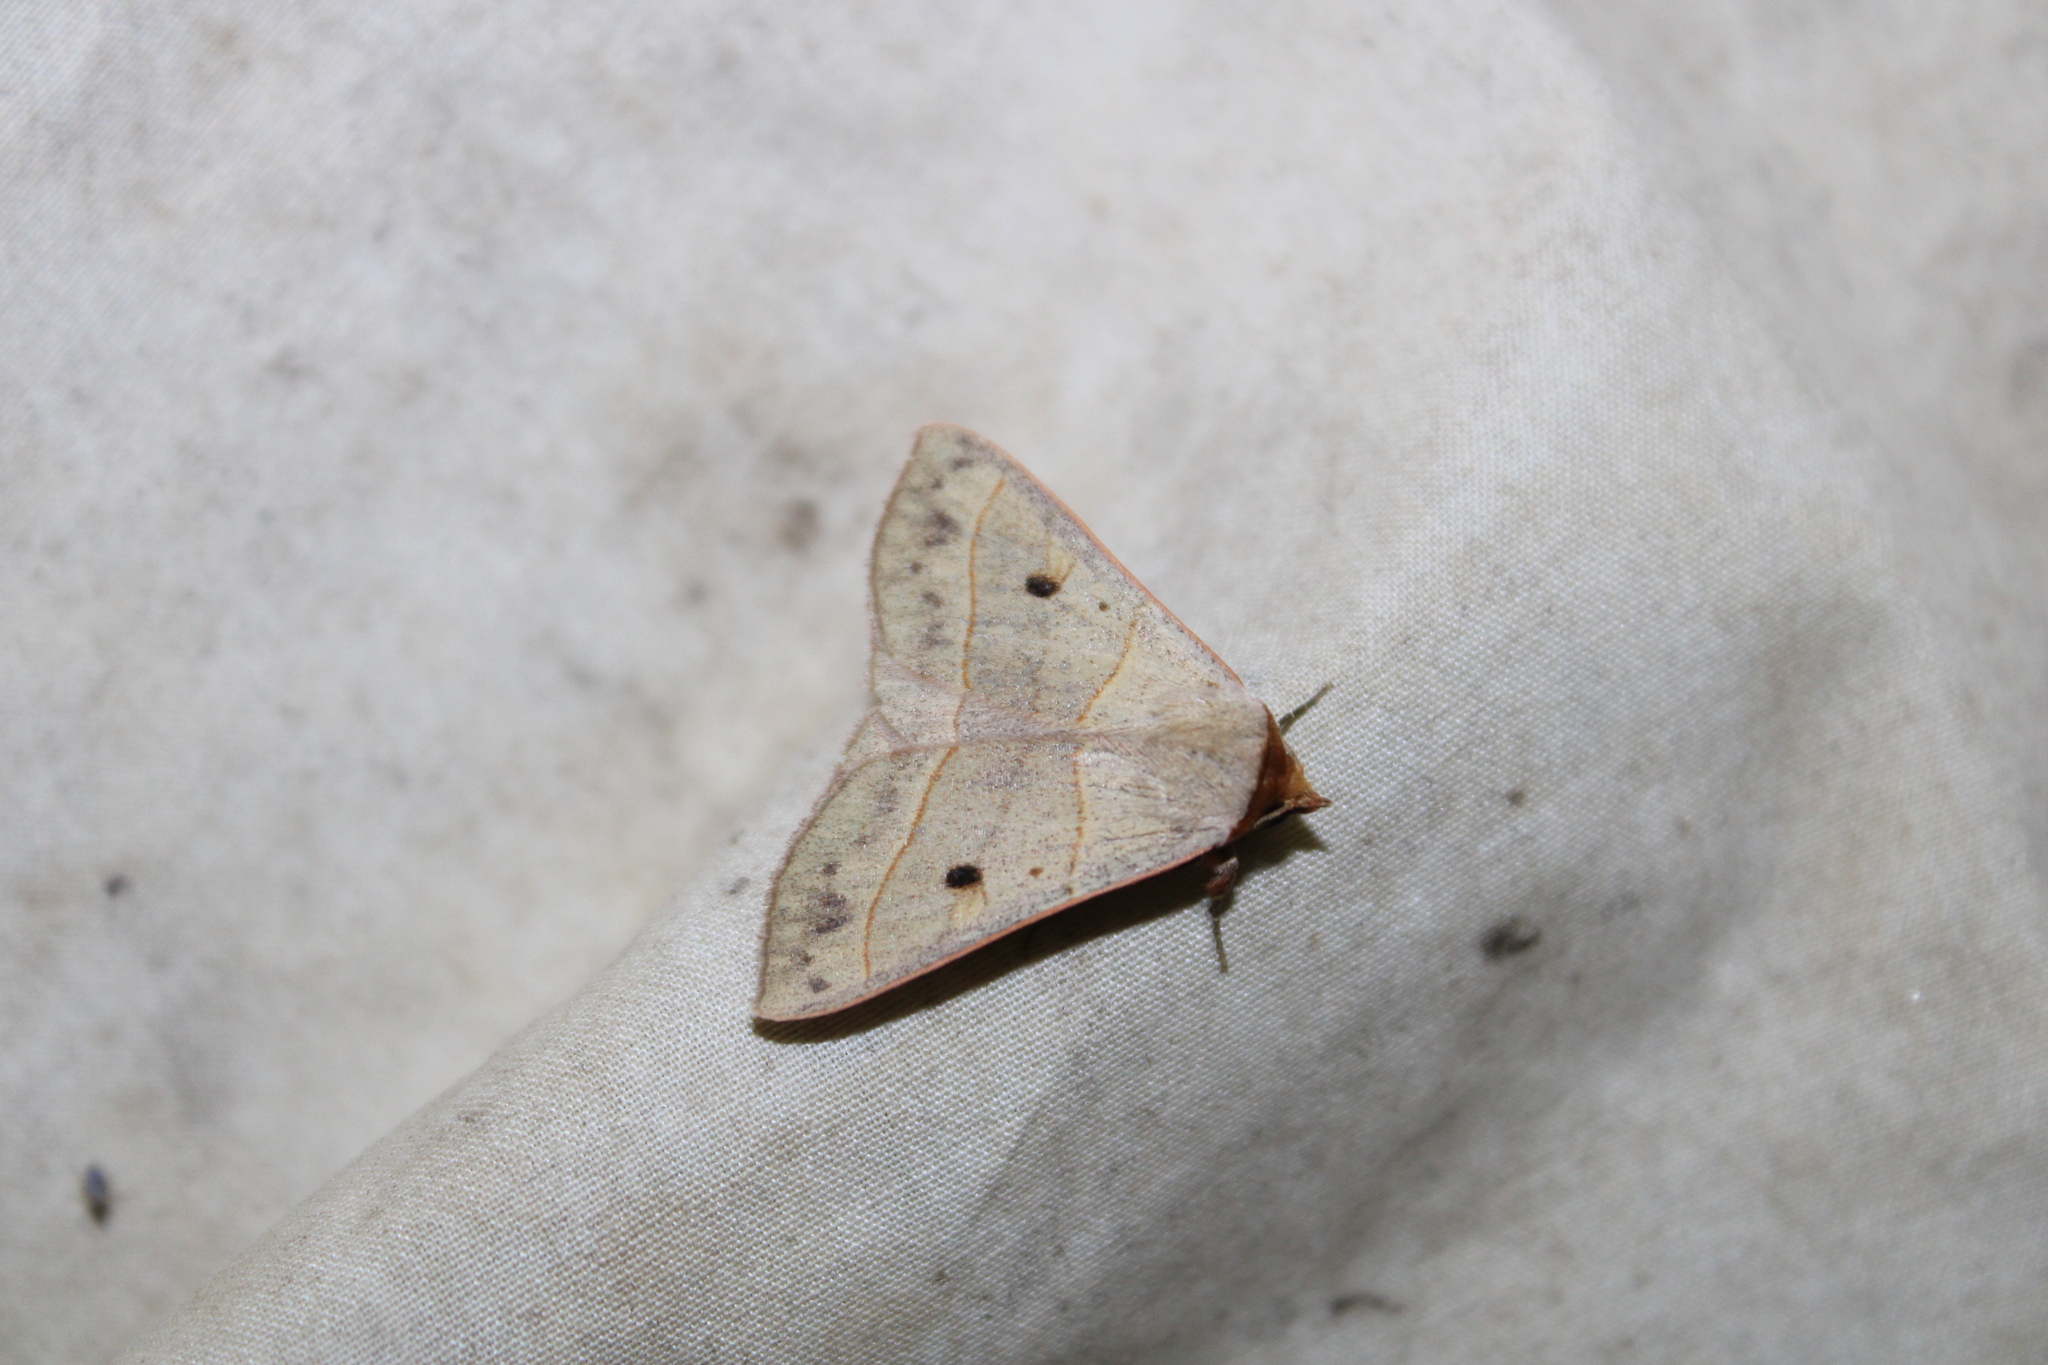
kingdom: Animalia
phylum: Arthropoda
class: Insecta
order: Lepidoptera
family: Erebidae
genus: Panopoda
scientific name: Panopoda rufimargo
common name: Red-lined panopoda moth
